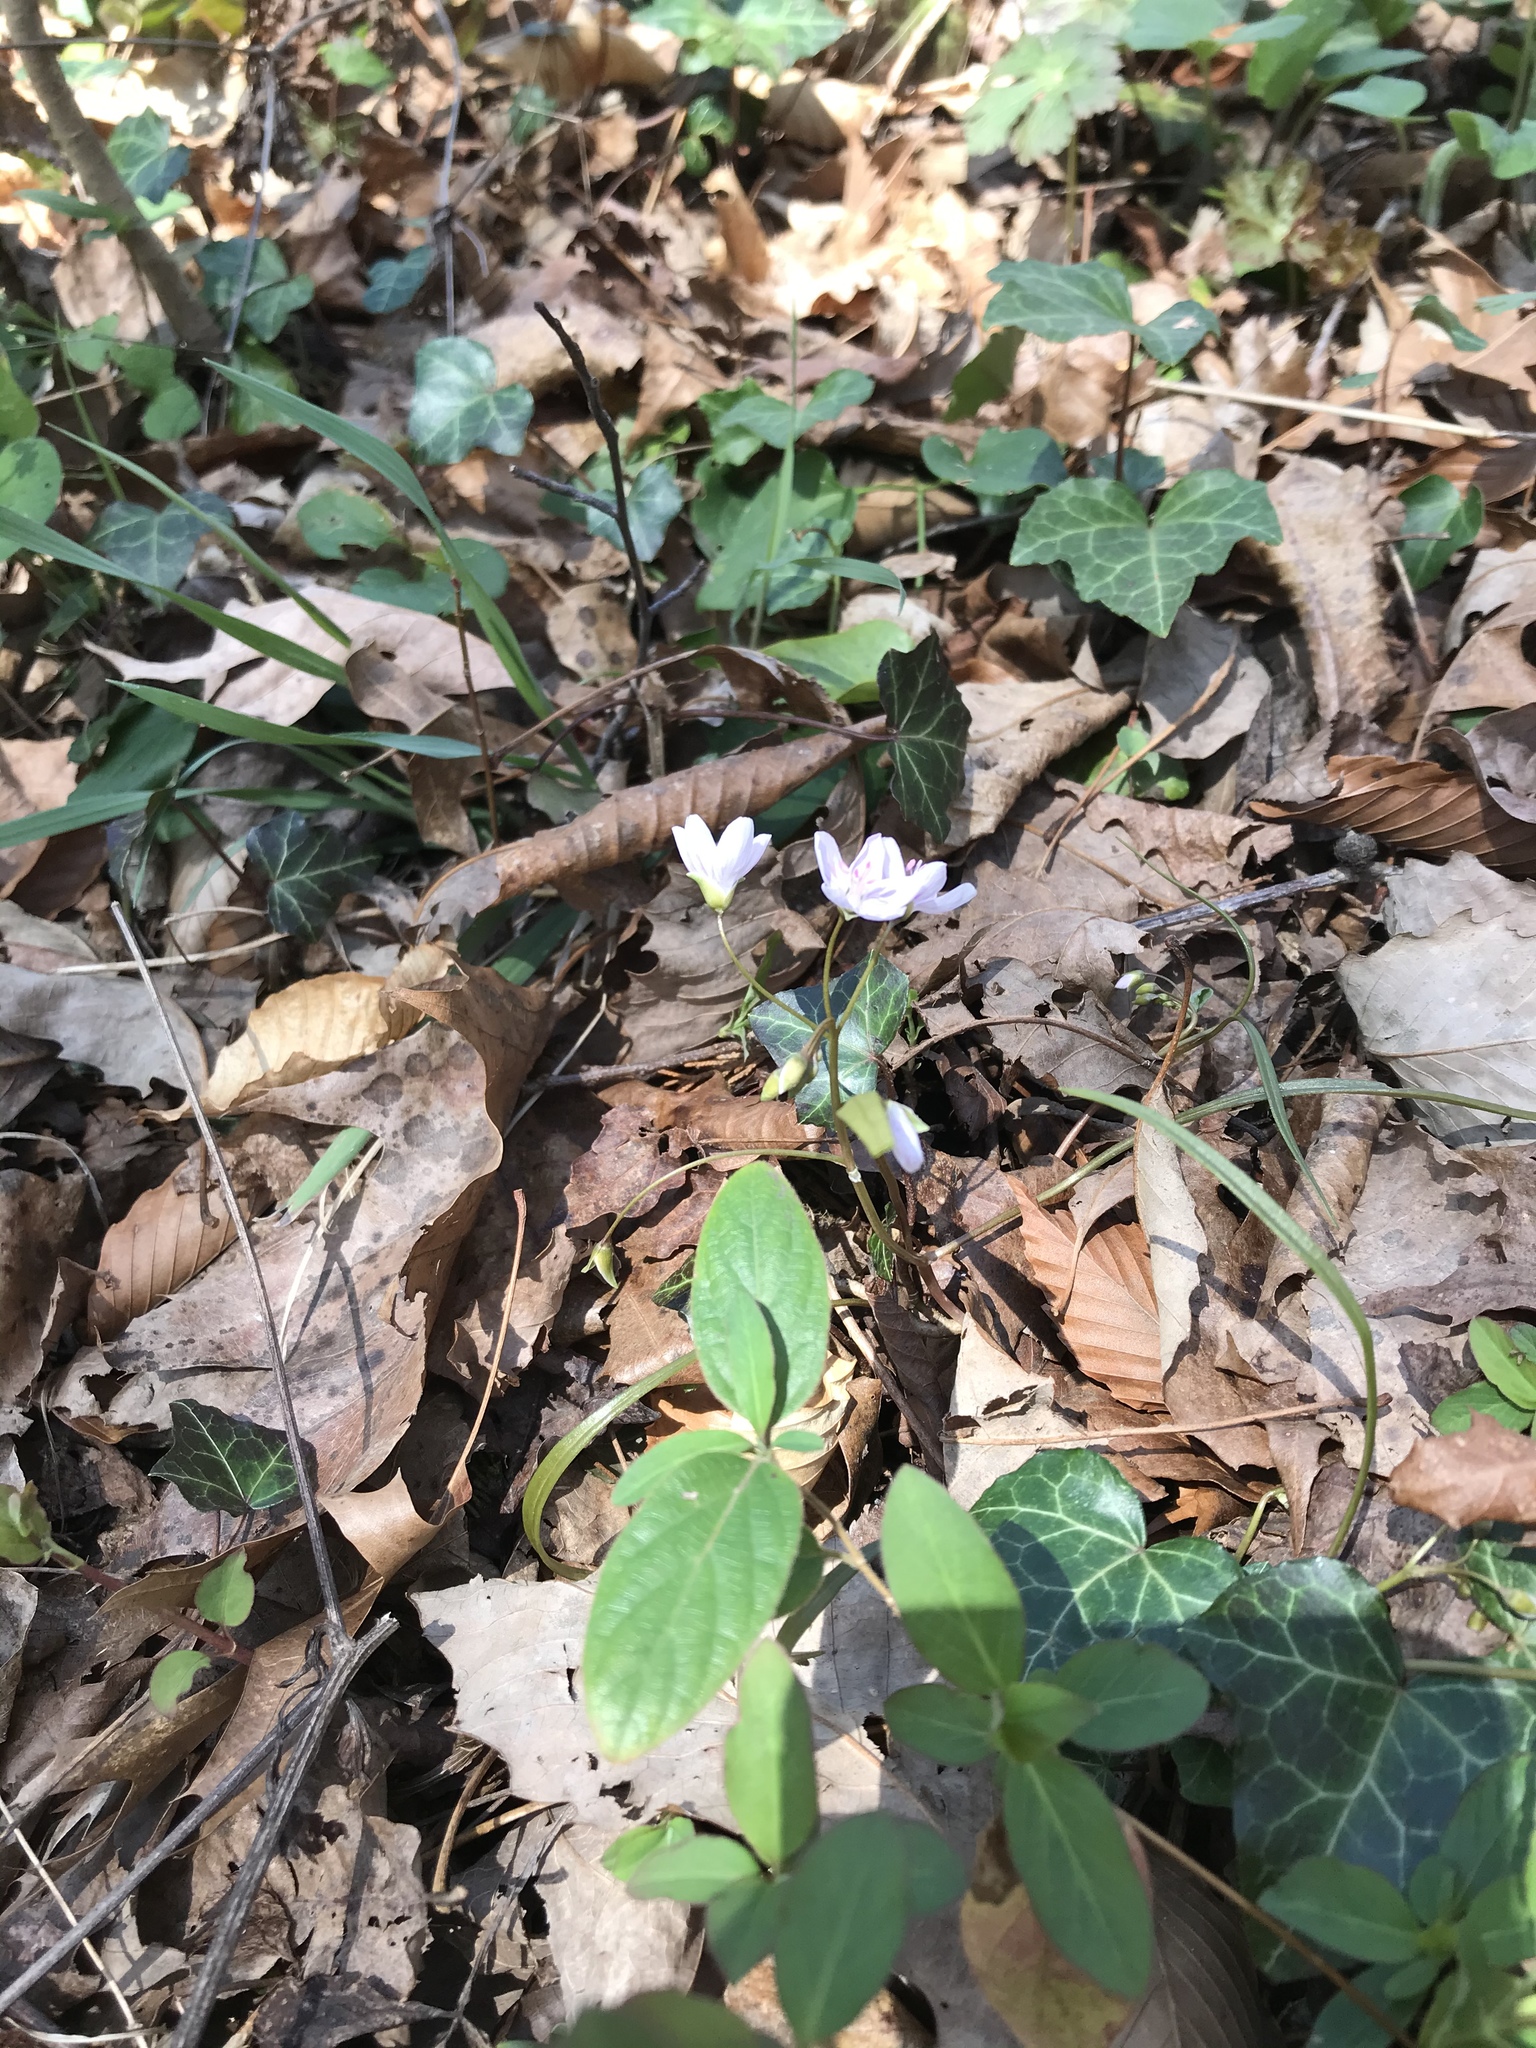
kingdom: Plantae
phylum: Tracheophyta
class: Magnoliopsida
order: Caryophyllales
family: Montiaceae
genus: Claytonia
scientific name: Claytonia virginica
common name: Virginia springbeauty
